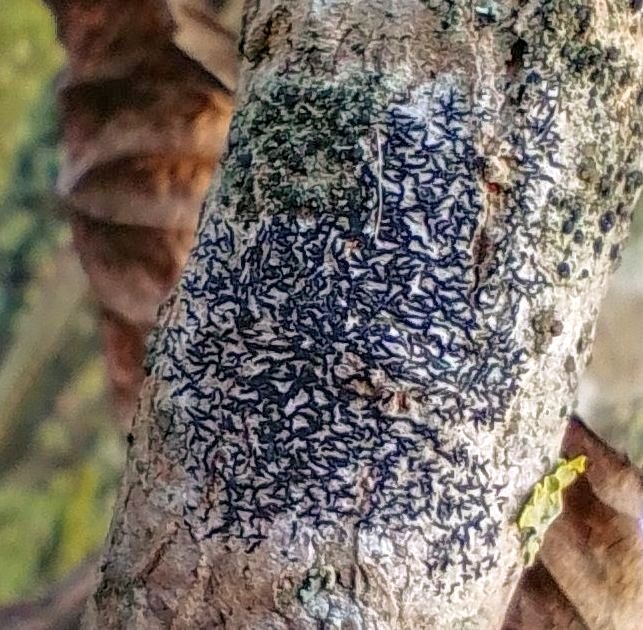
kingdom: Fungi
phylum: Ascomycota
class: Arthoniomycetes
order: Arthoniales
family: Arthoniaceae
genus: Arthonia
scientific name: Arthonia atra
